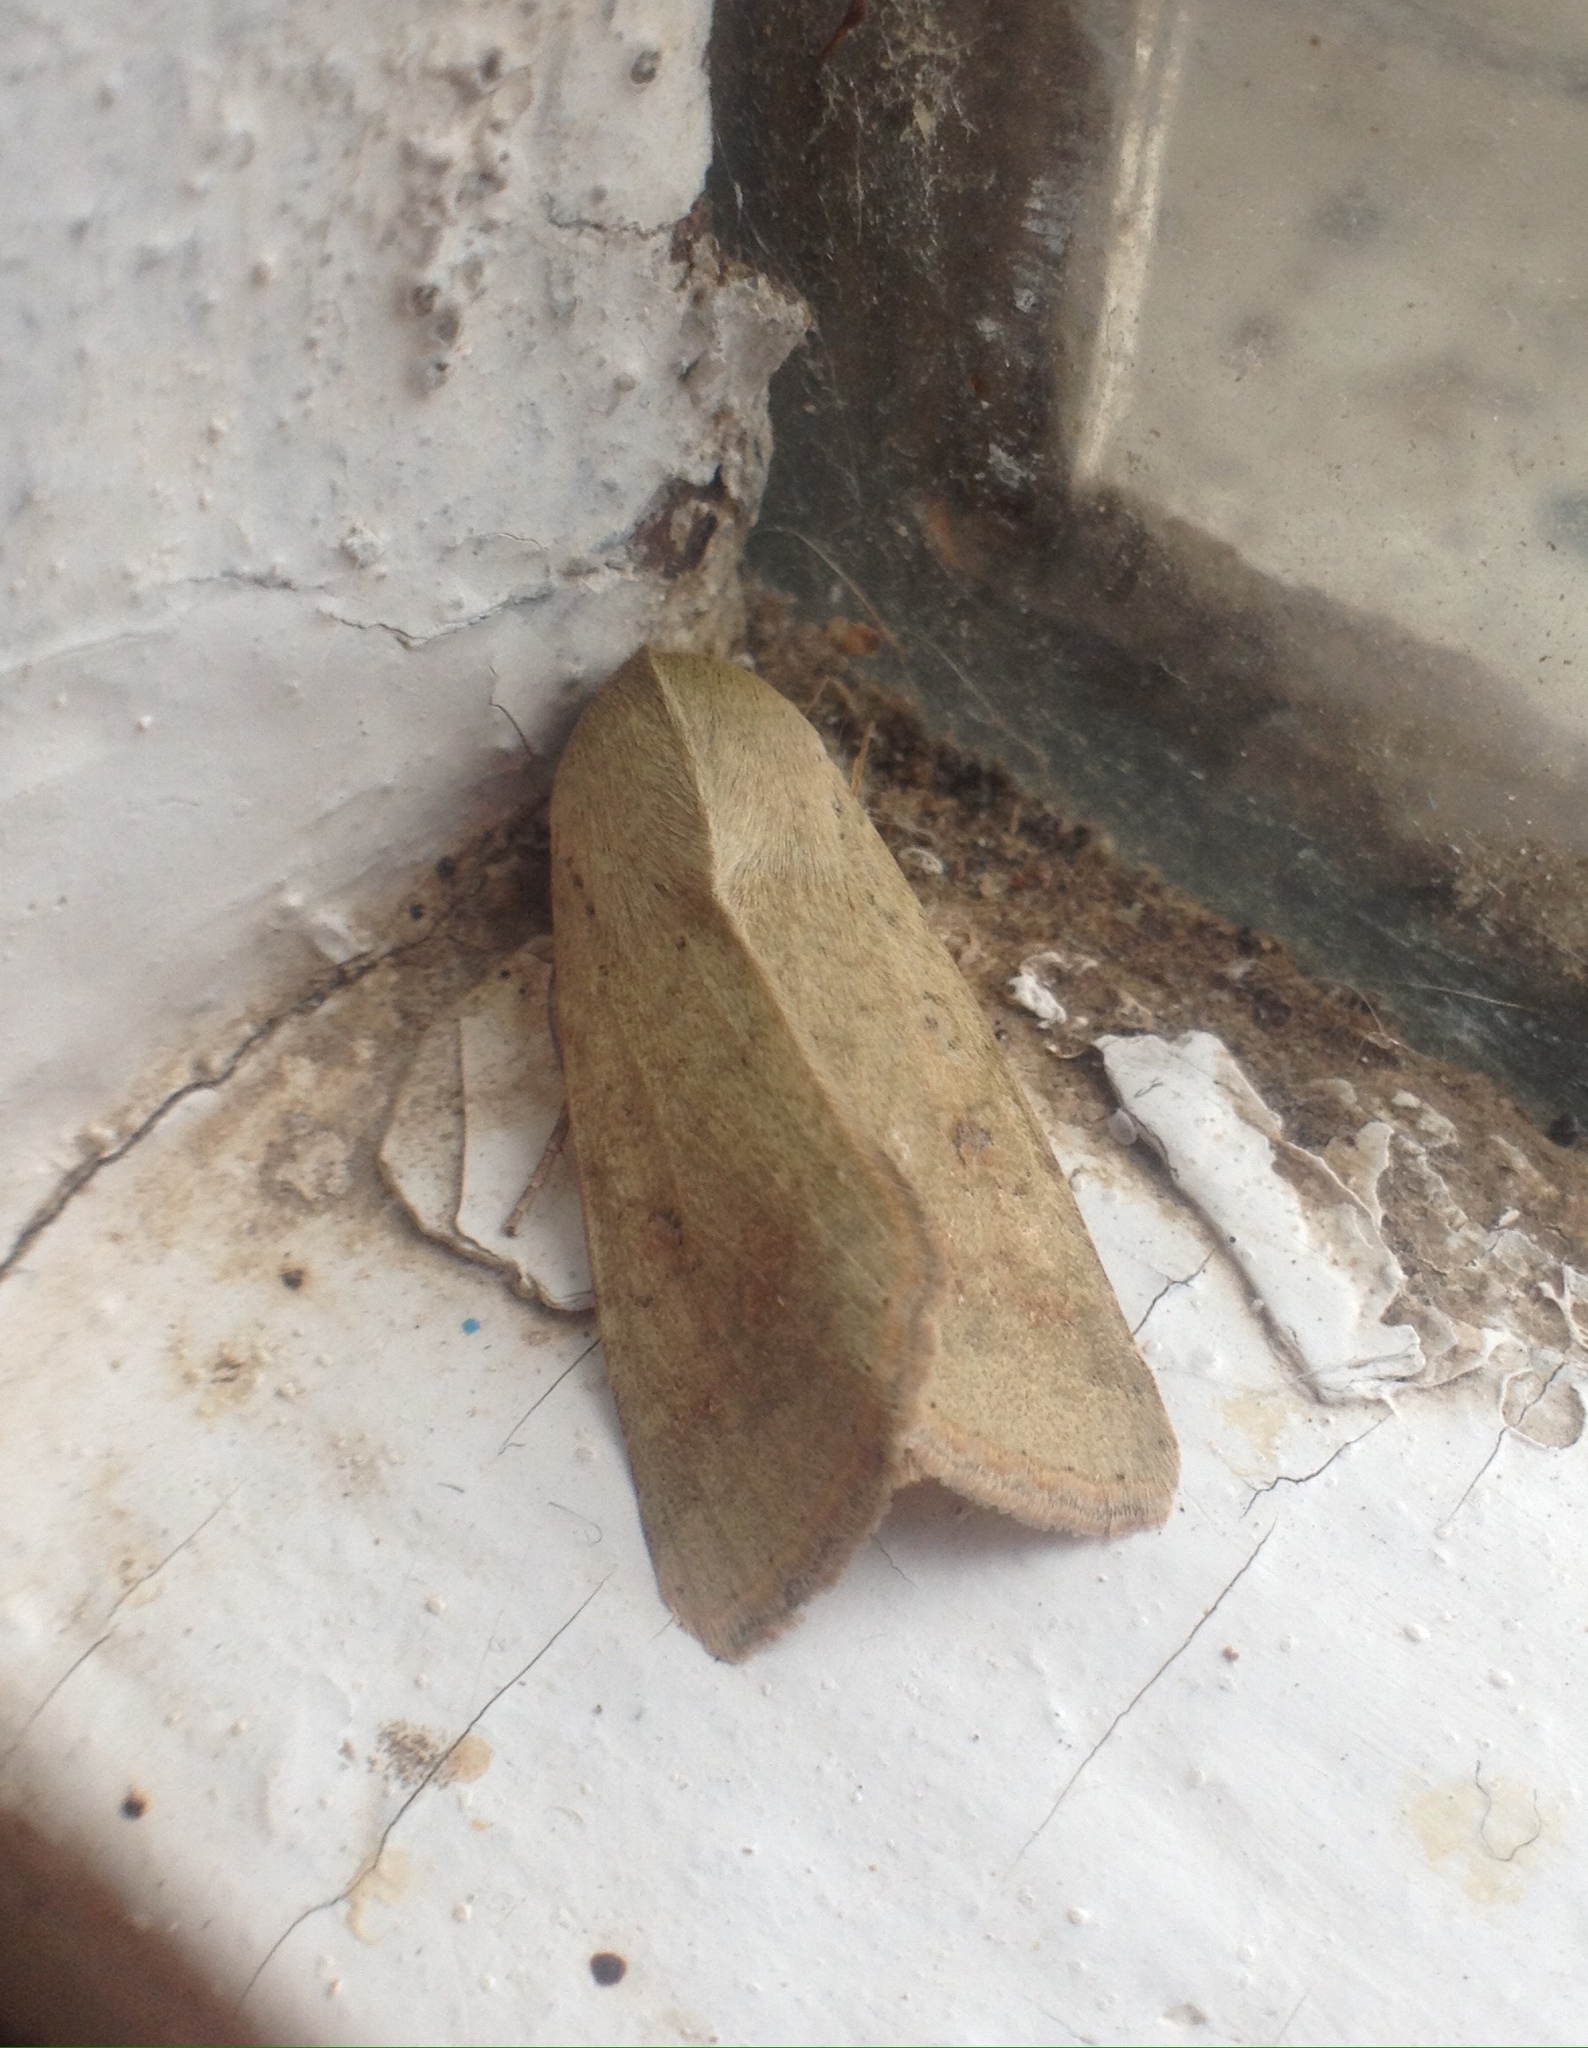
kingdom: Animalia
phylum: Arthropoda
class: Insecta
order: Lepidoptera
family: Noctuidae
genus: Helicoverpa
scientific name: Helicoverpa armigera
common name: Cotton bollworm
